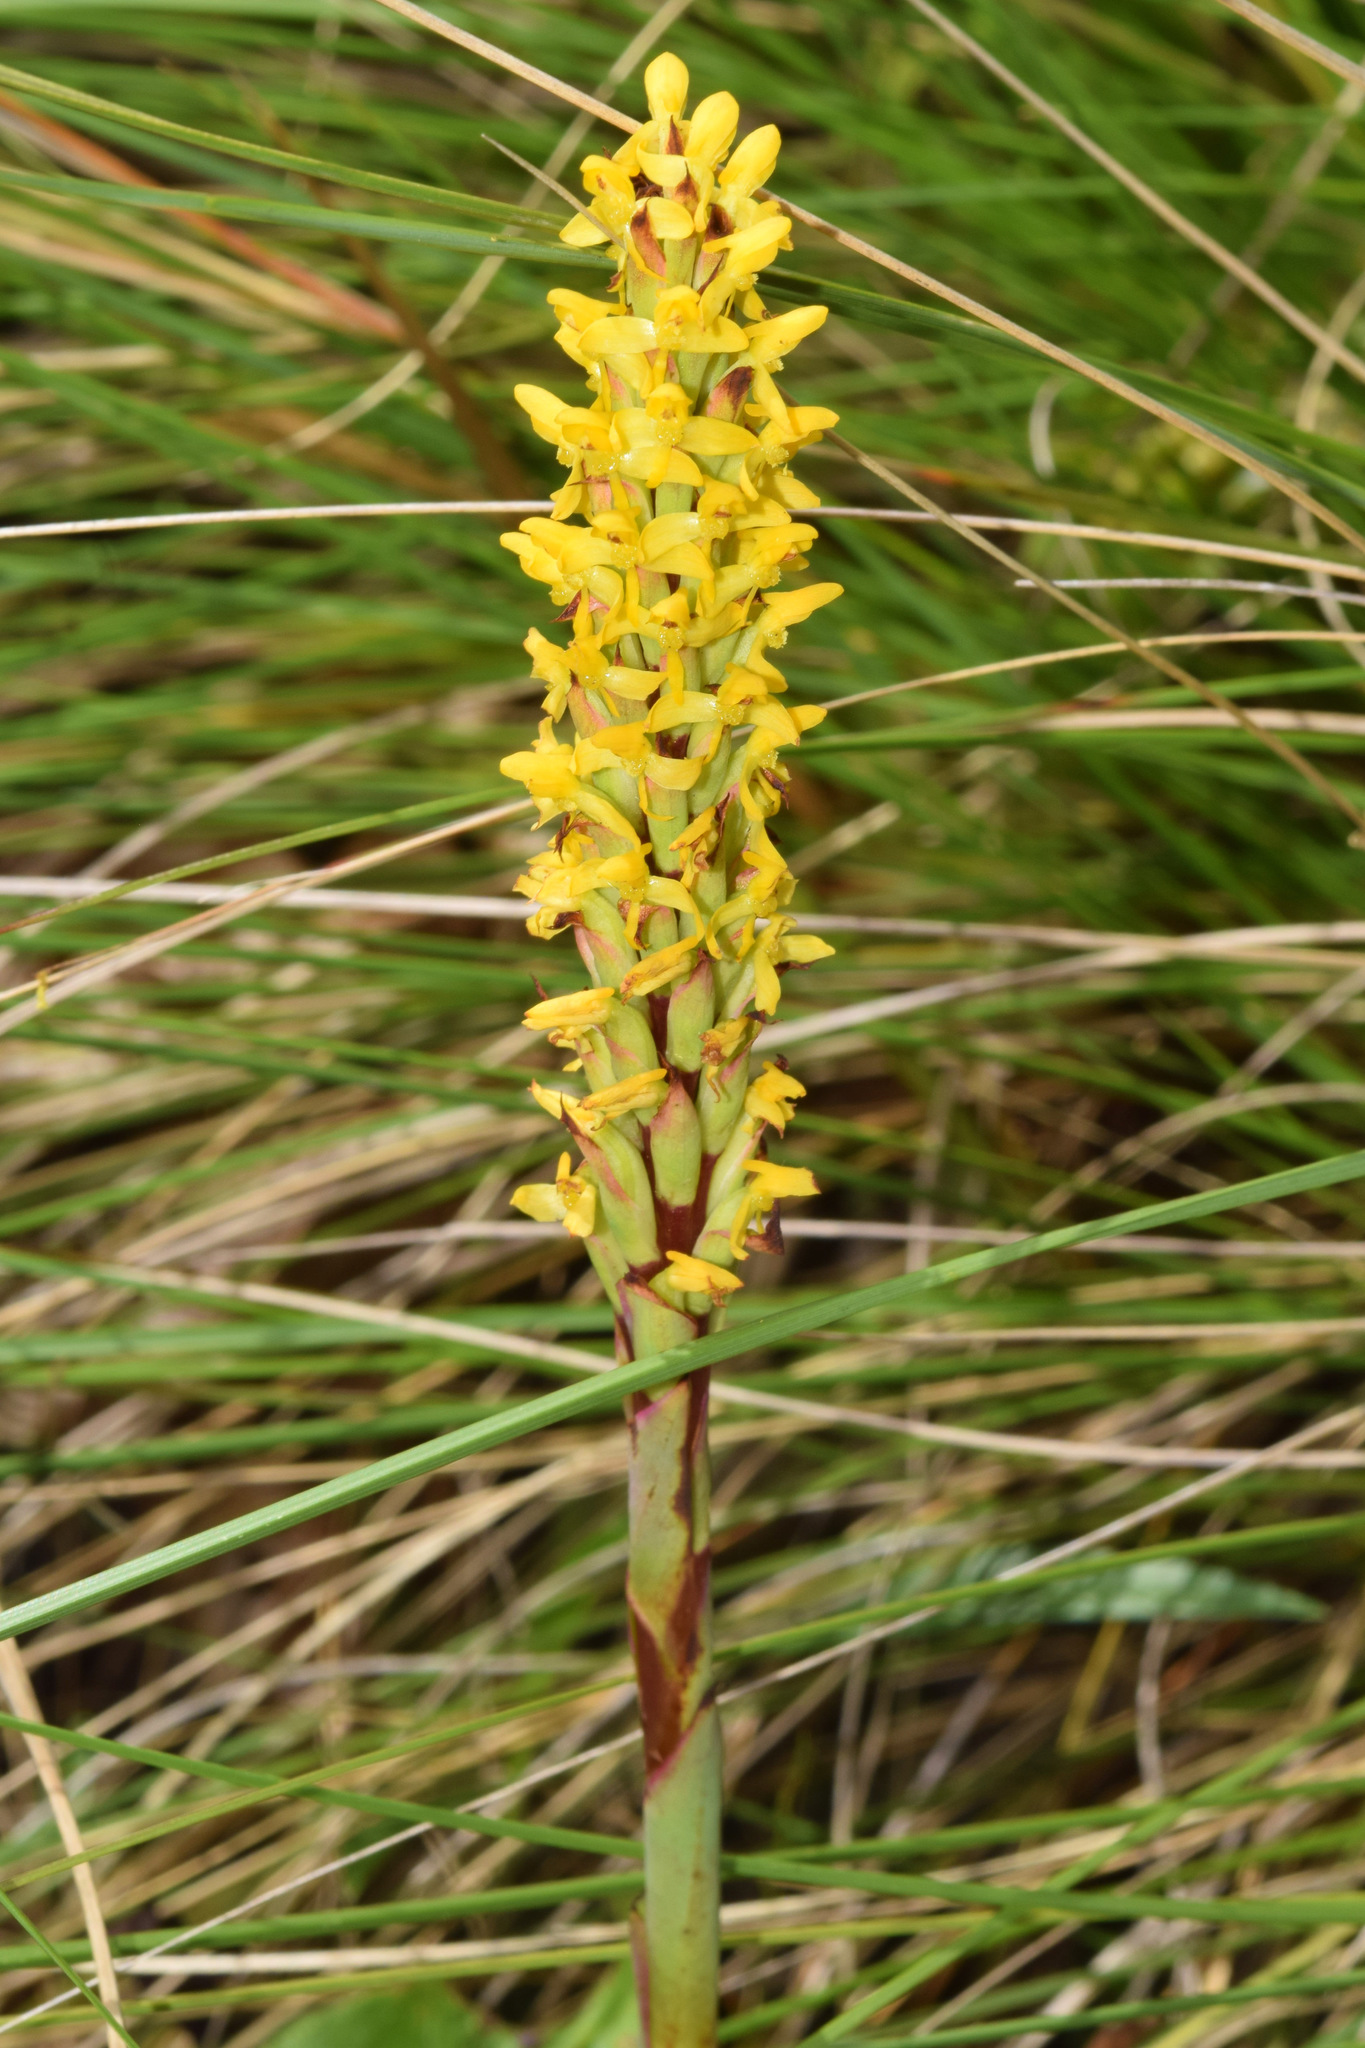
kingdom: Plantae
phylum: Tracheophyta
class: Liliopsida
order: Asparagales
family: Orchidaceae
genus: Disa
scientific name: Disa woodii
